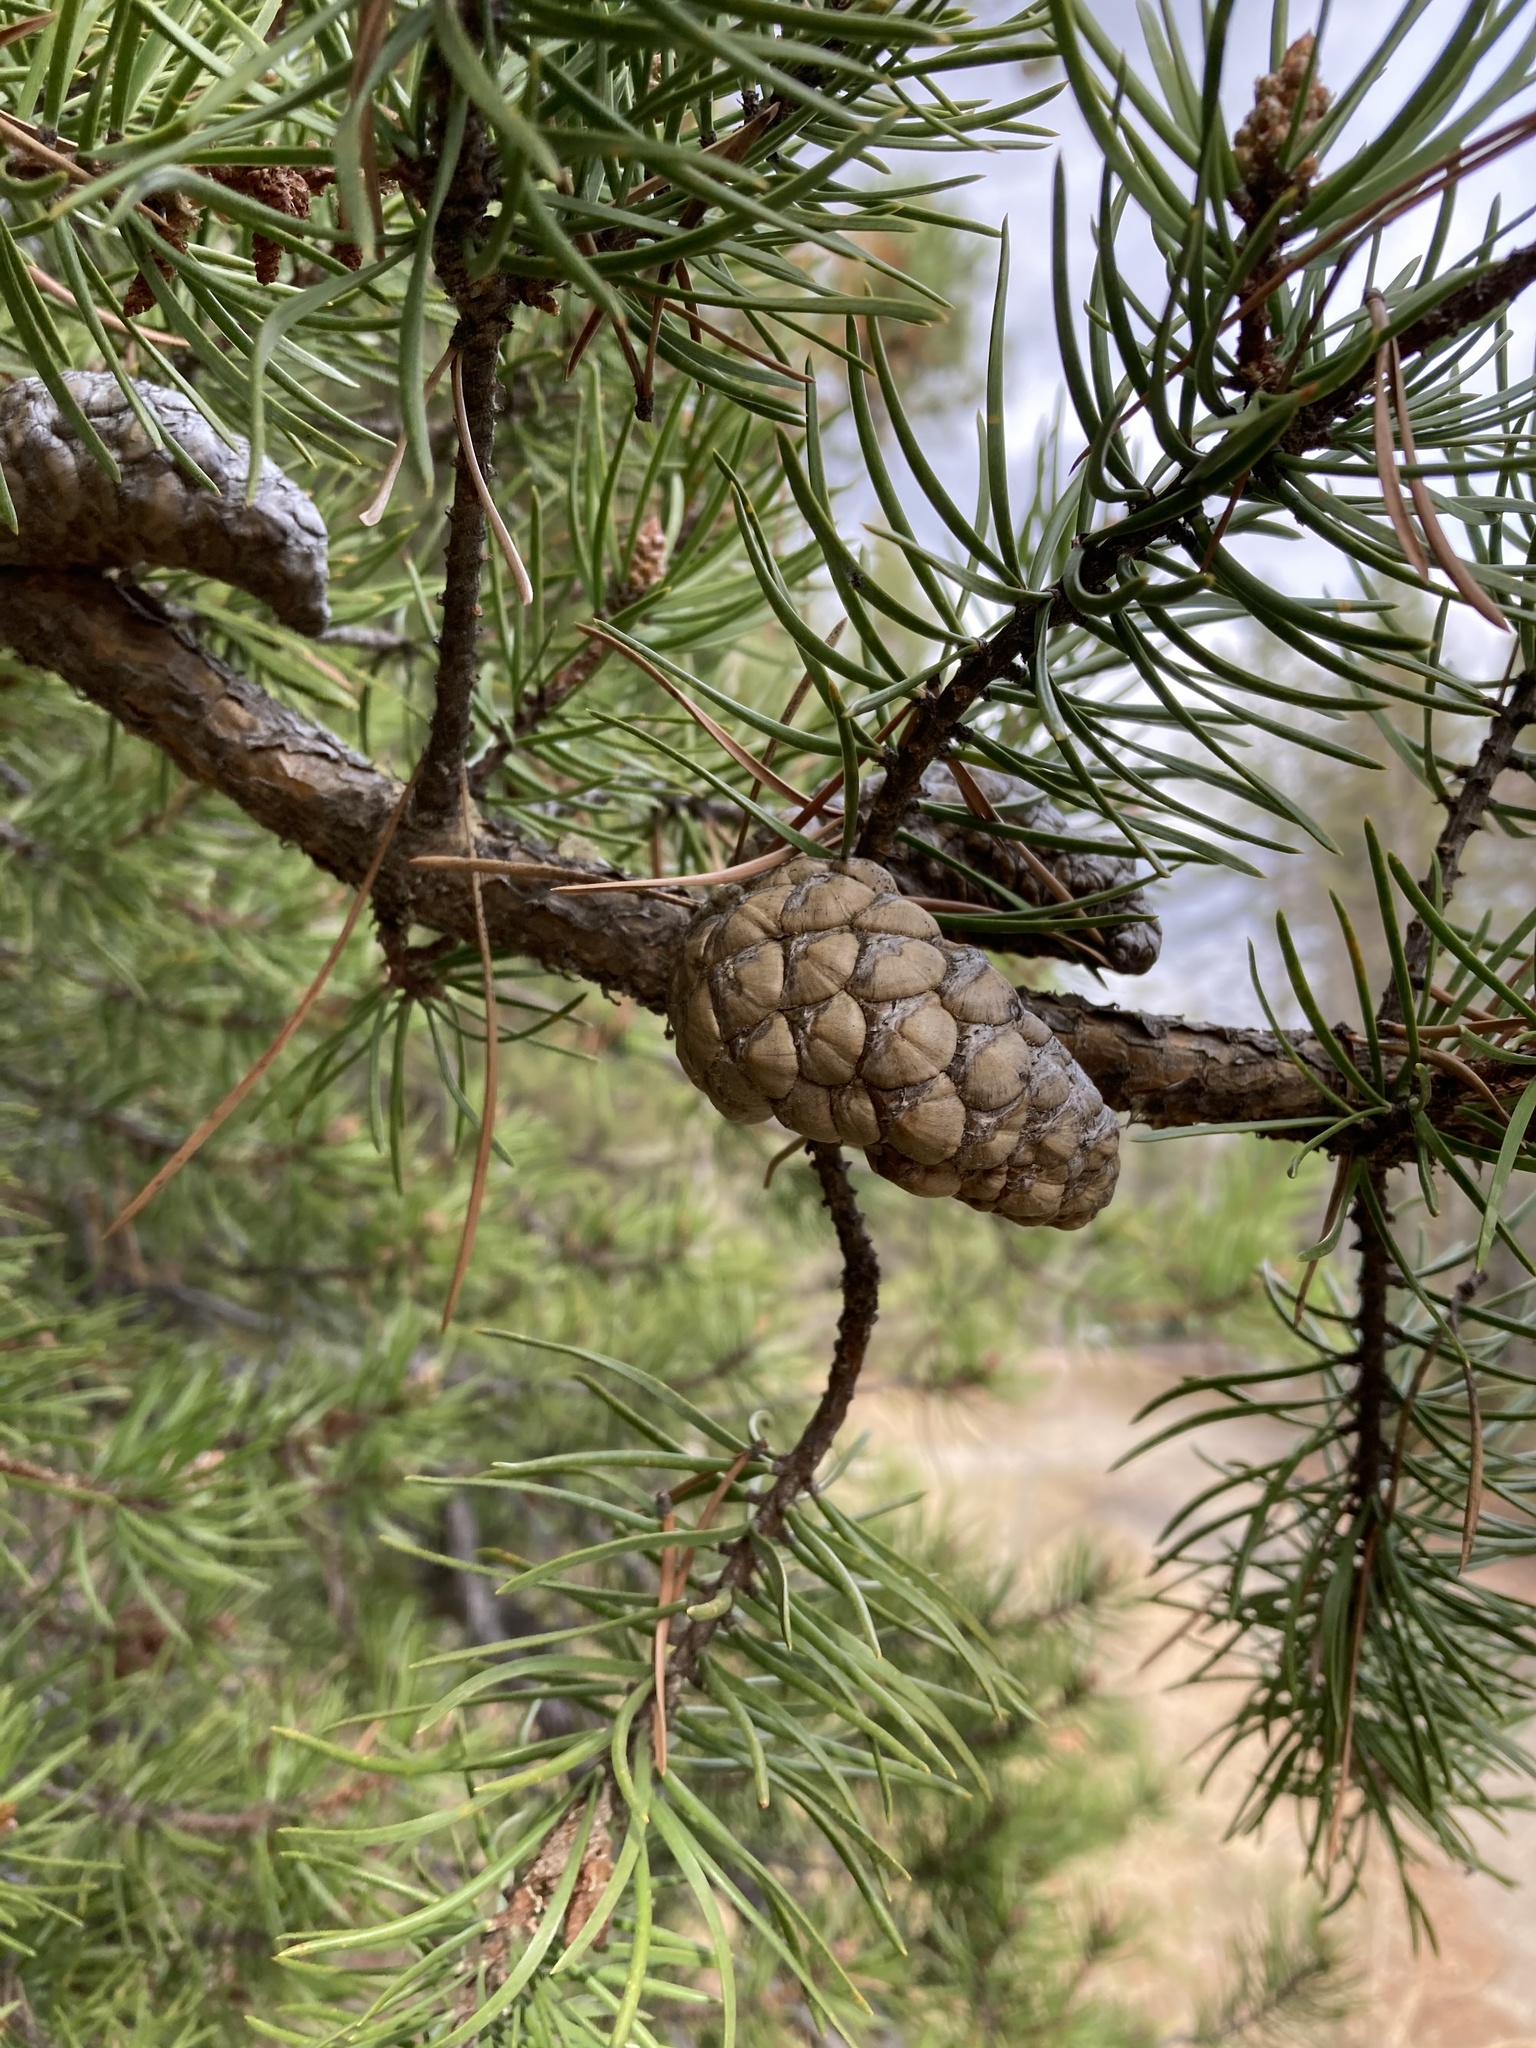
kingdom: Plantae
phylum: Tracheophyta
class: Pinopsida
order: Pinales
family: Pinaceae
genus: Pinus
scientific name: Pinus banksiana
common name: Jack pine
